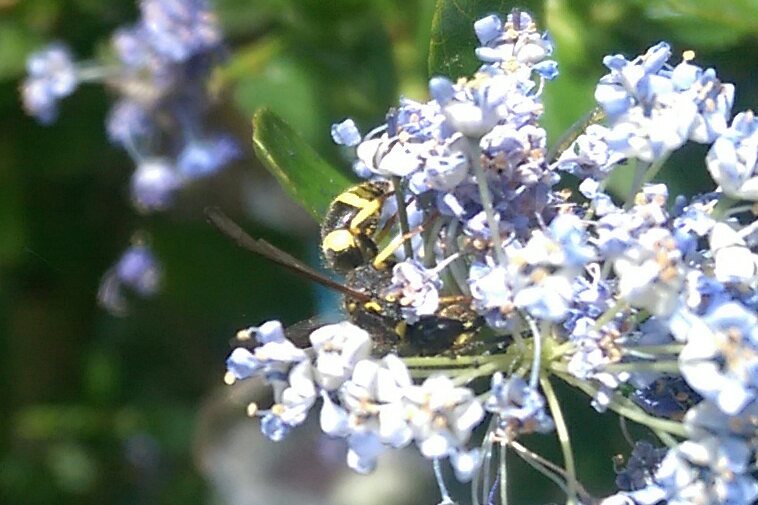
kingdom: Animalia
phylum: Arthropoda
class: Insecta
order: Hymenoptera
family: Vespidae
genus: Ancistrocerus
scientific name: Ancistrocerus
